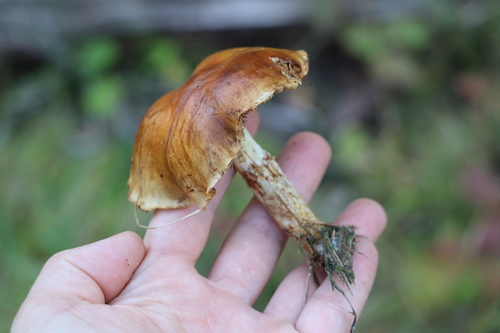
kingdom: Fungi
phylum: Basidiomycota
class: Agaricomycetes
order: Agaricales
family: Strophariaceae
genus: Pholiota
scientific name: Pholiota lubrica
